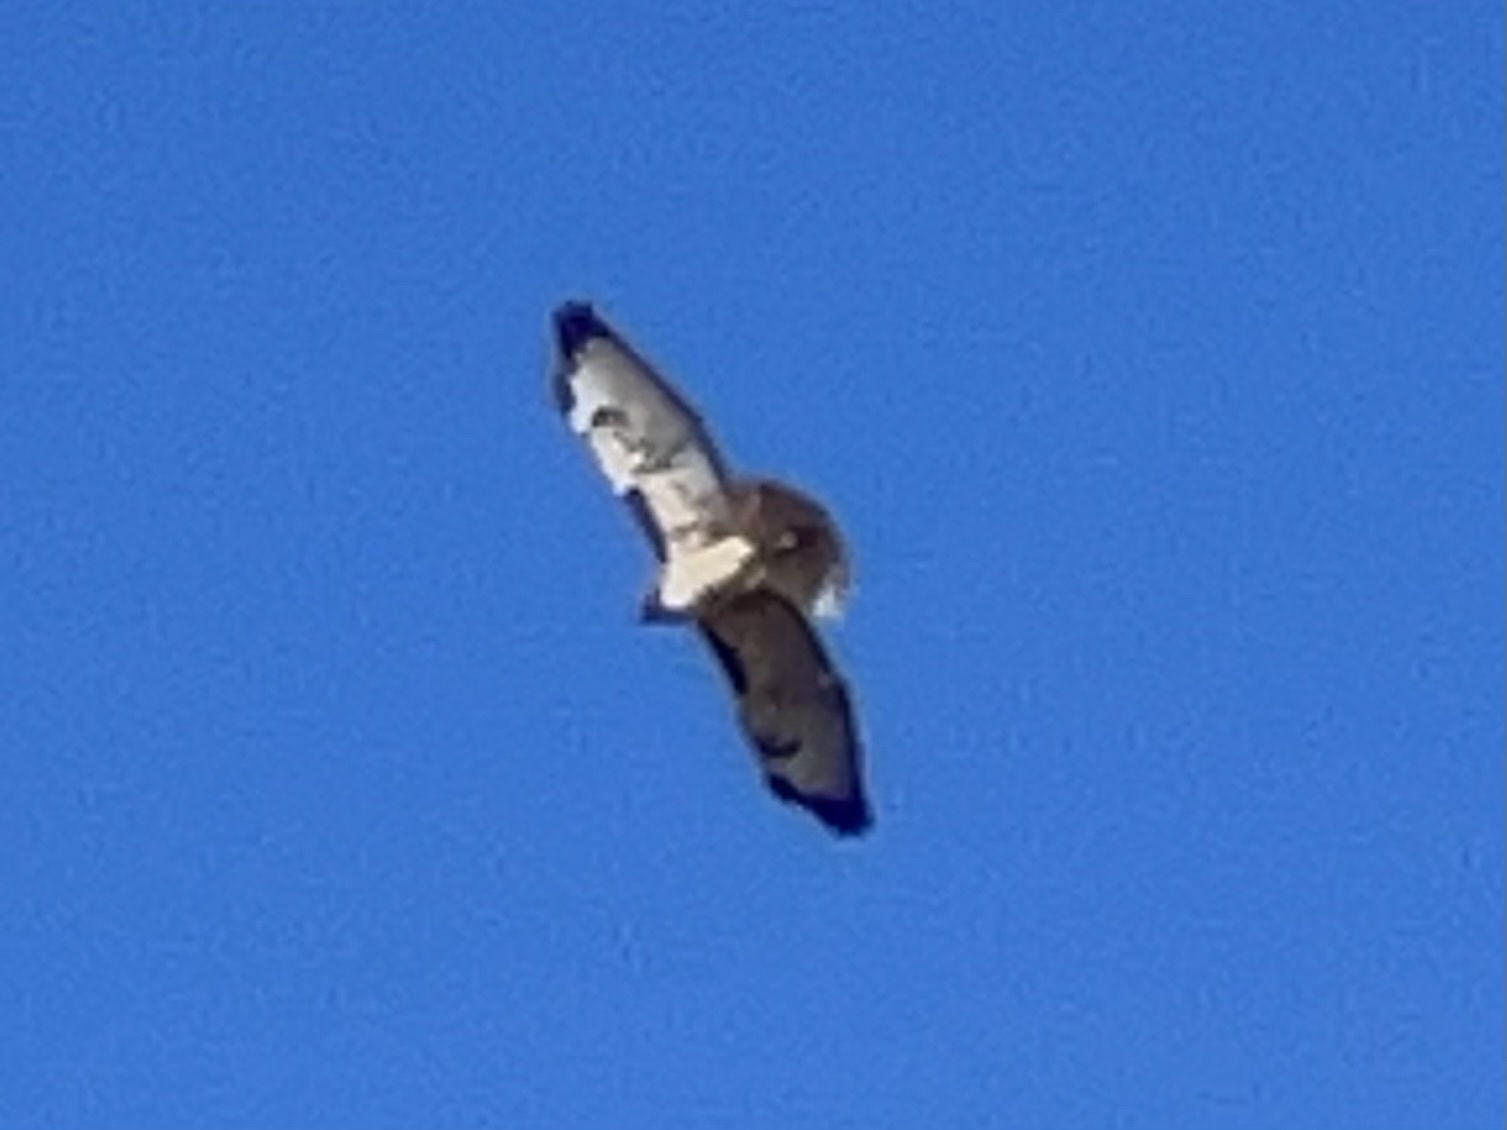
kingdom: Animalia
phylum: Chordata
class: Aves
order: Accipitriformes
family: Accipitridae
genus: Buteo
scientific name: Buteo jamaicensis
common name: Red-tailed hawk
